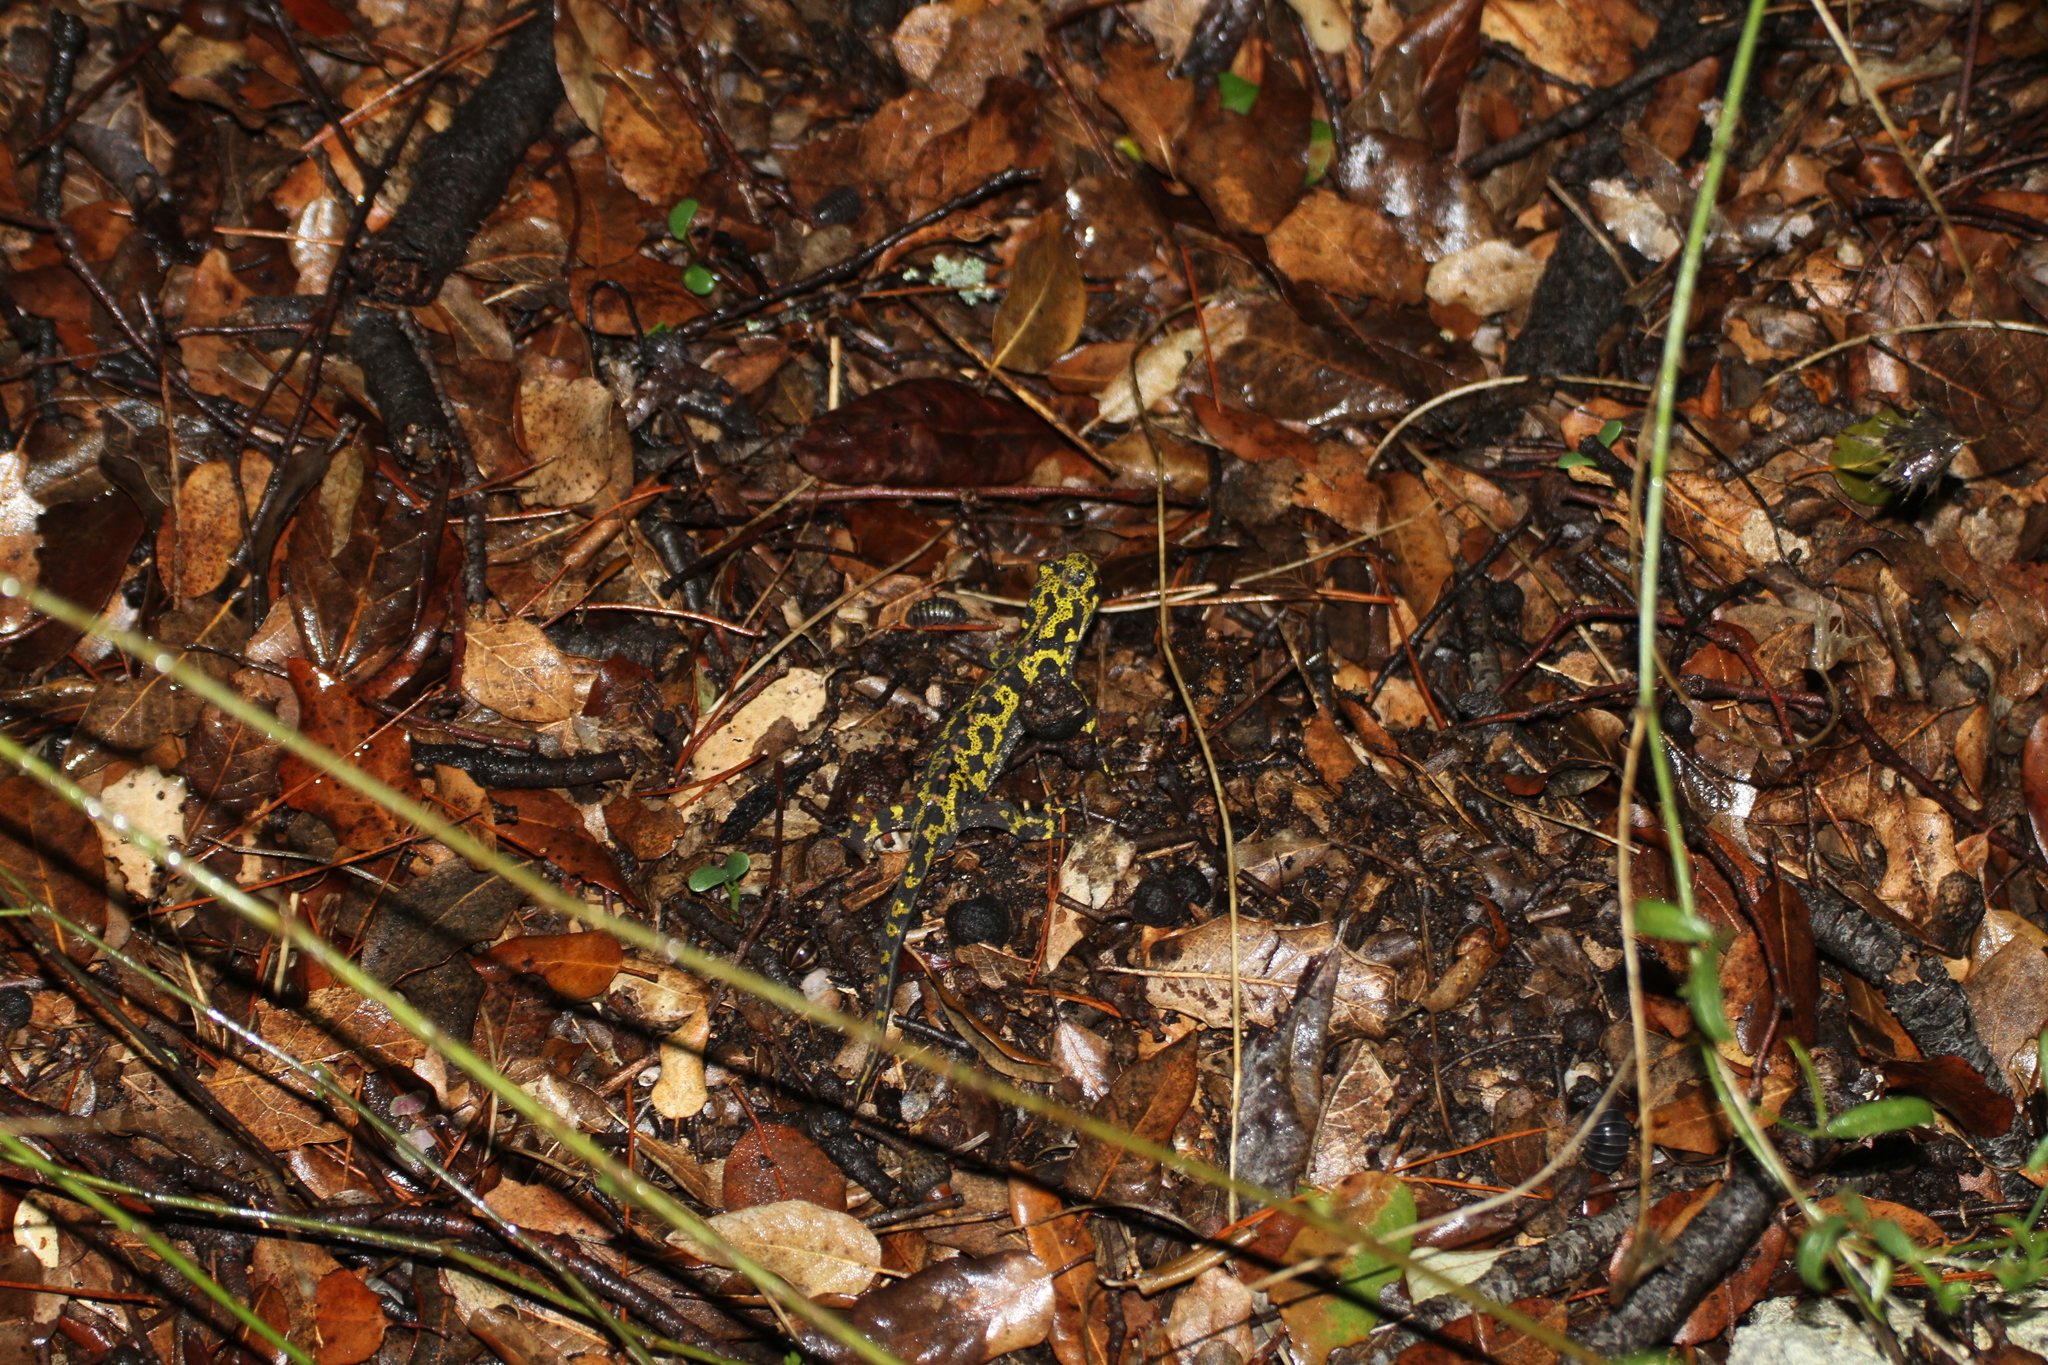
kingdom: Animalia
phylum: Chordata
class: Amphibia
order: Caudata
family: Salamandridae
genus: Triturus
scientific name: Triturus marmoratus
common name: Marbled newt
